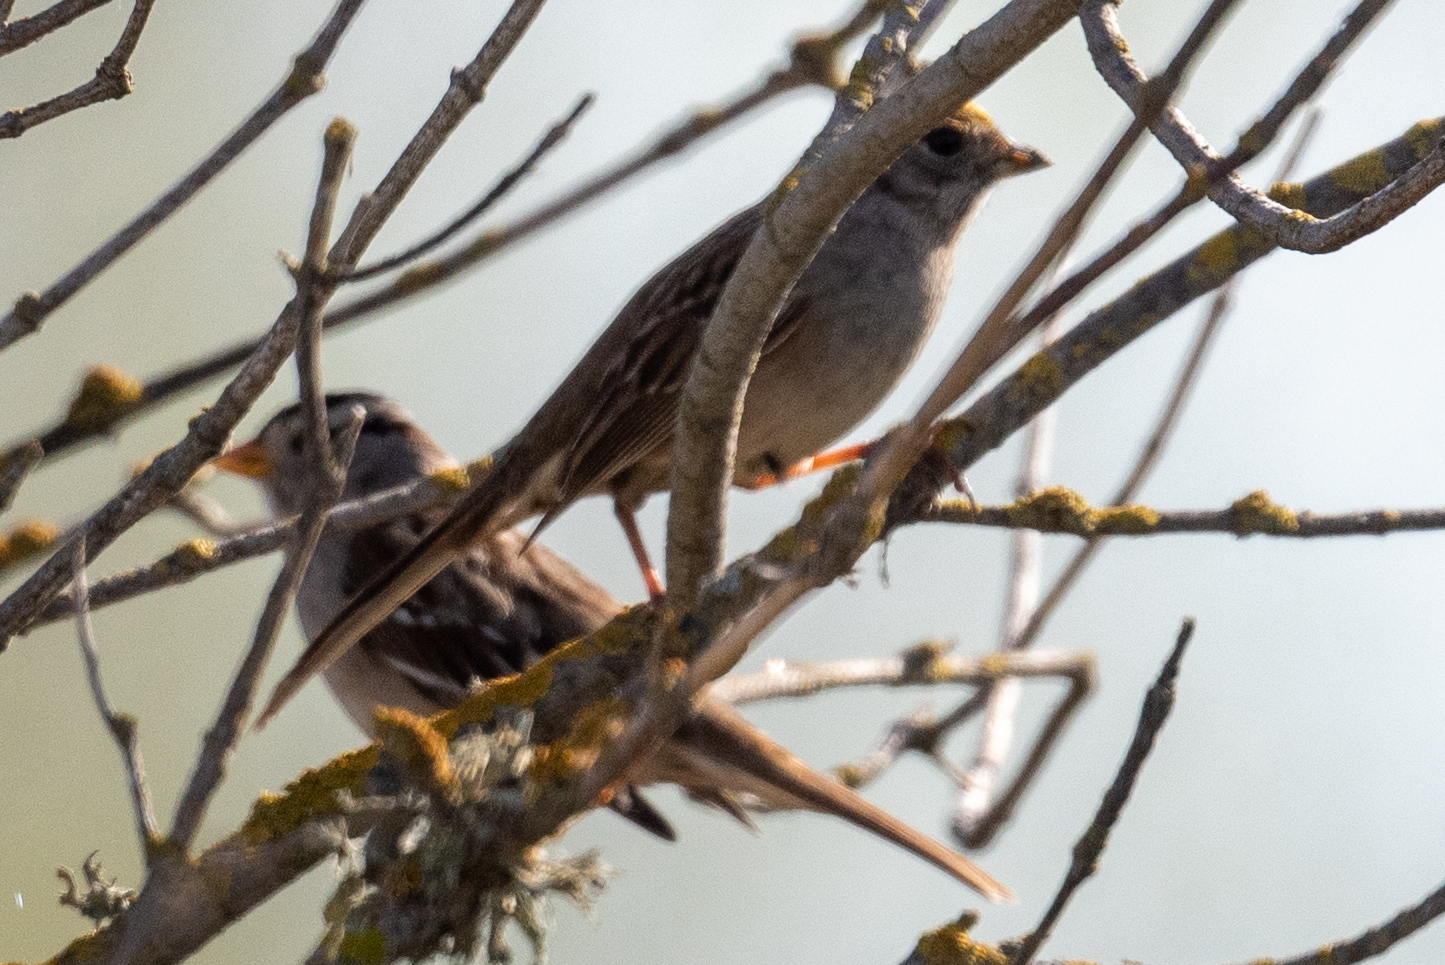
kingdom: Animalia
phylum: Chordata
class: Aves
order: Passeriformes
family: Passerellidae
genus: Zonotrichia
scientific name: Zonotrichia leucophrys
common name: White-crowned sparrow
